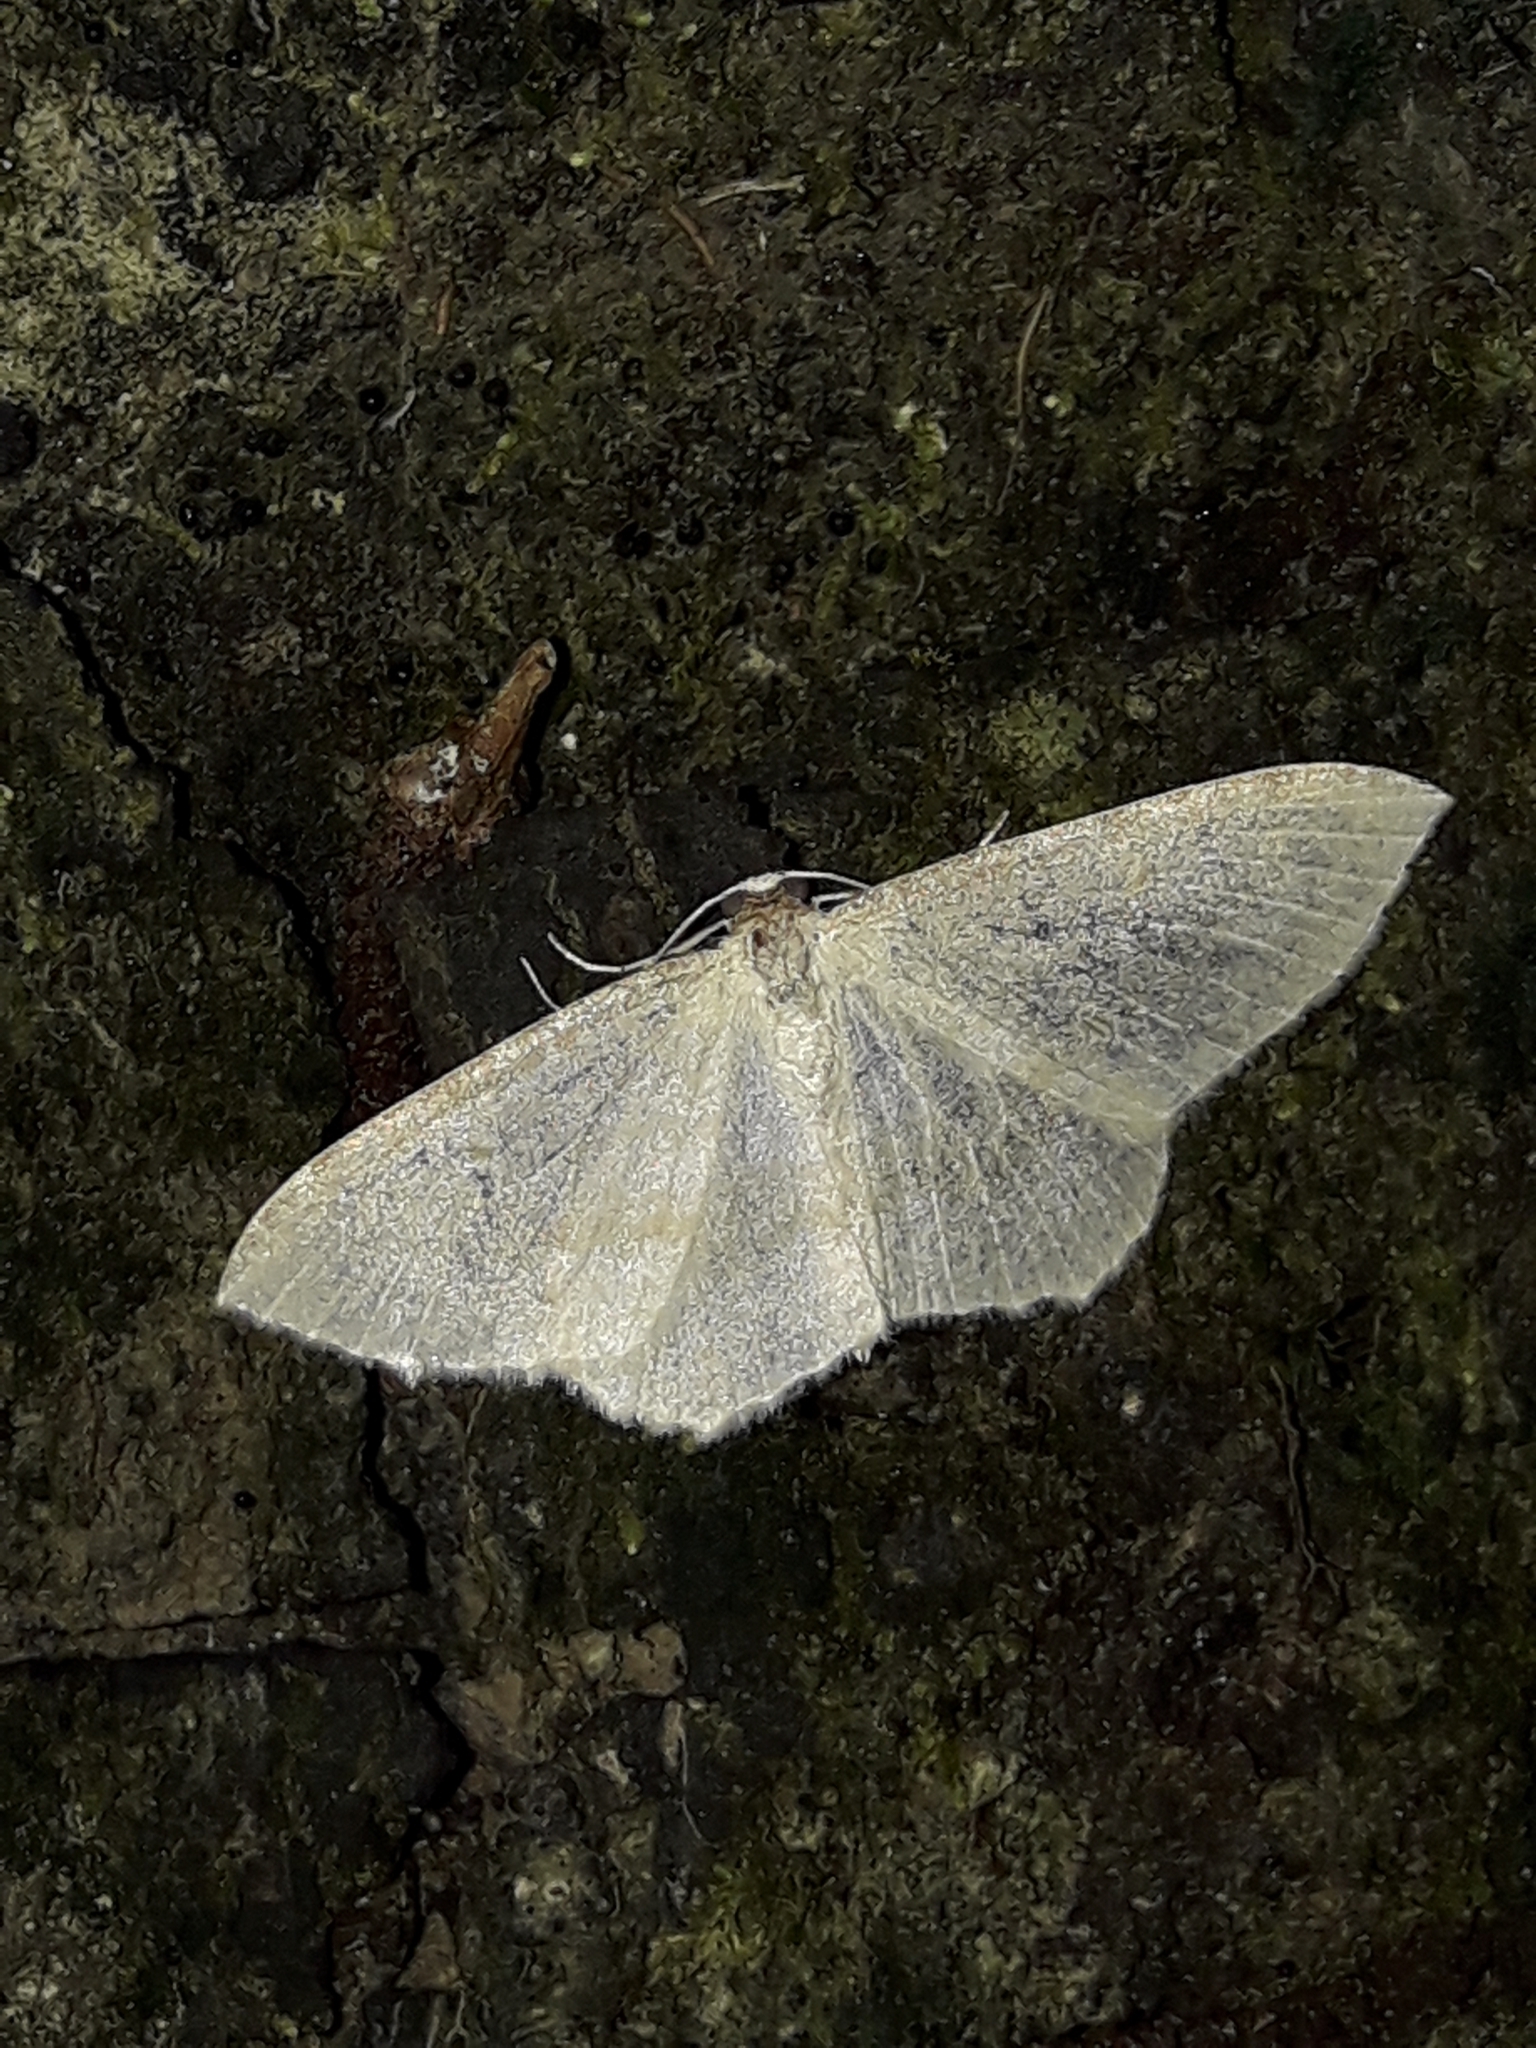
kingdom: Animalia
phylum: Arthropoda
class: Insecta
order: Lepidoptera
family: Geometridae
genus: Poecilasthena
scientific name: Poecilasthena pulchraria
